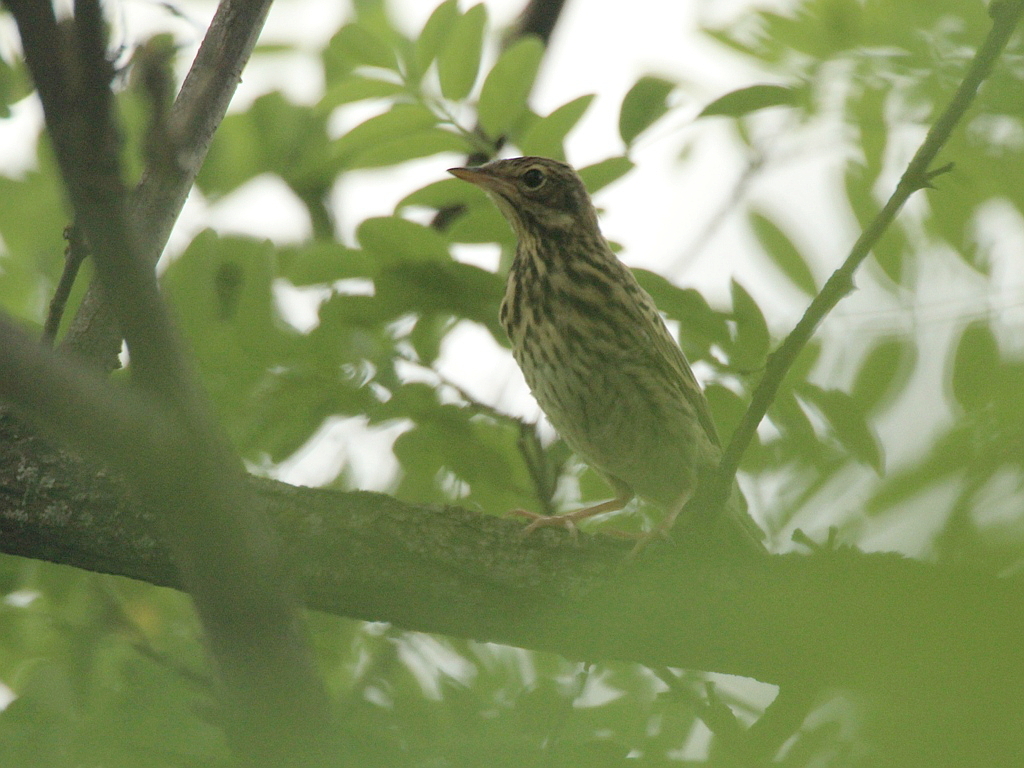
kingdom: Animalia
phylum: Chordata
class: Aves
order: Passeriformes
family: Motacillidae
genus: Anthus
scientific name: Anthus trivialis
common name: Tree pipit
